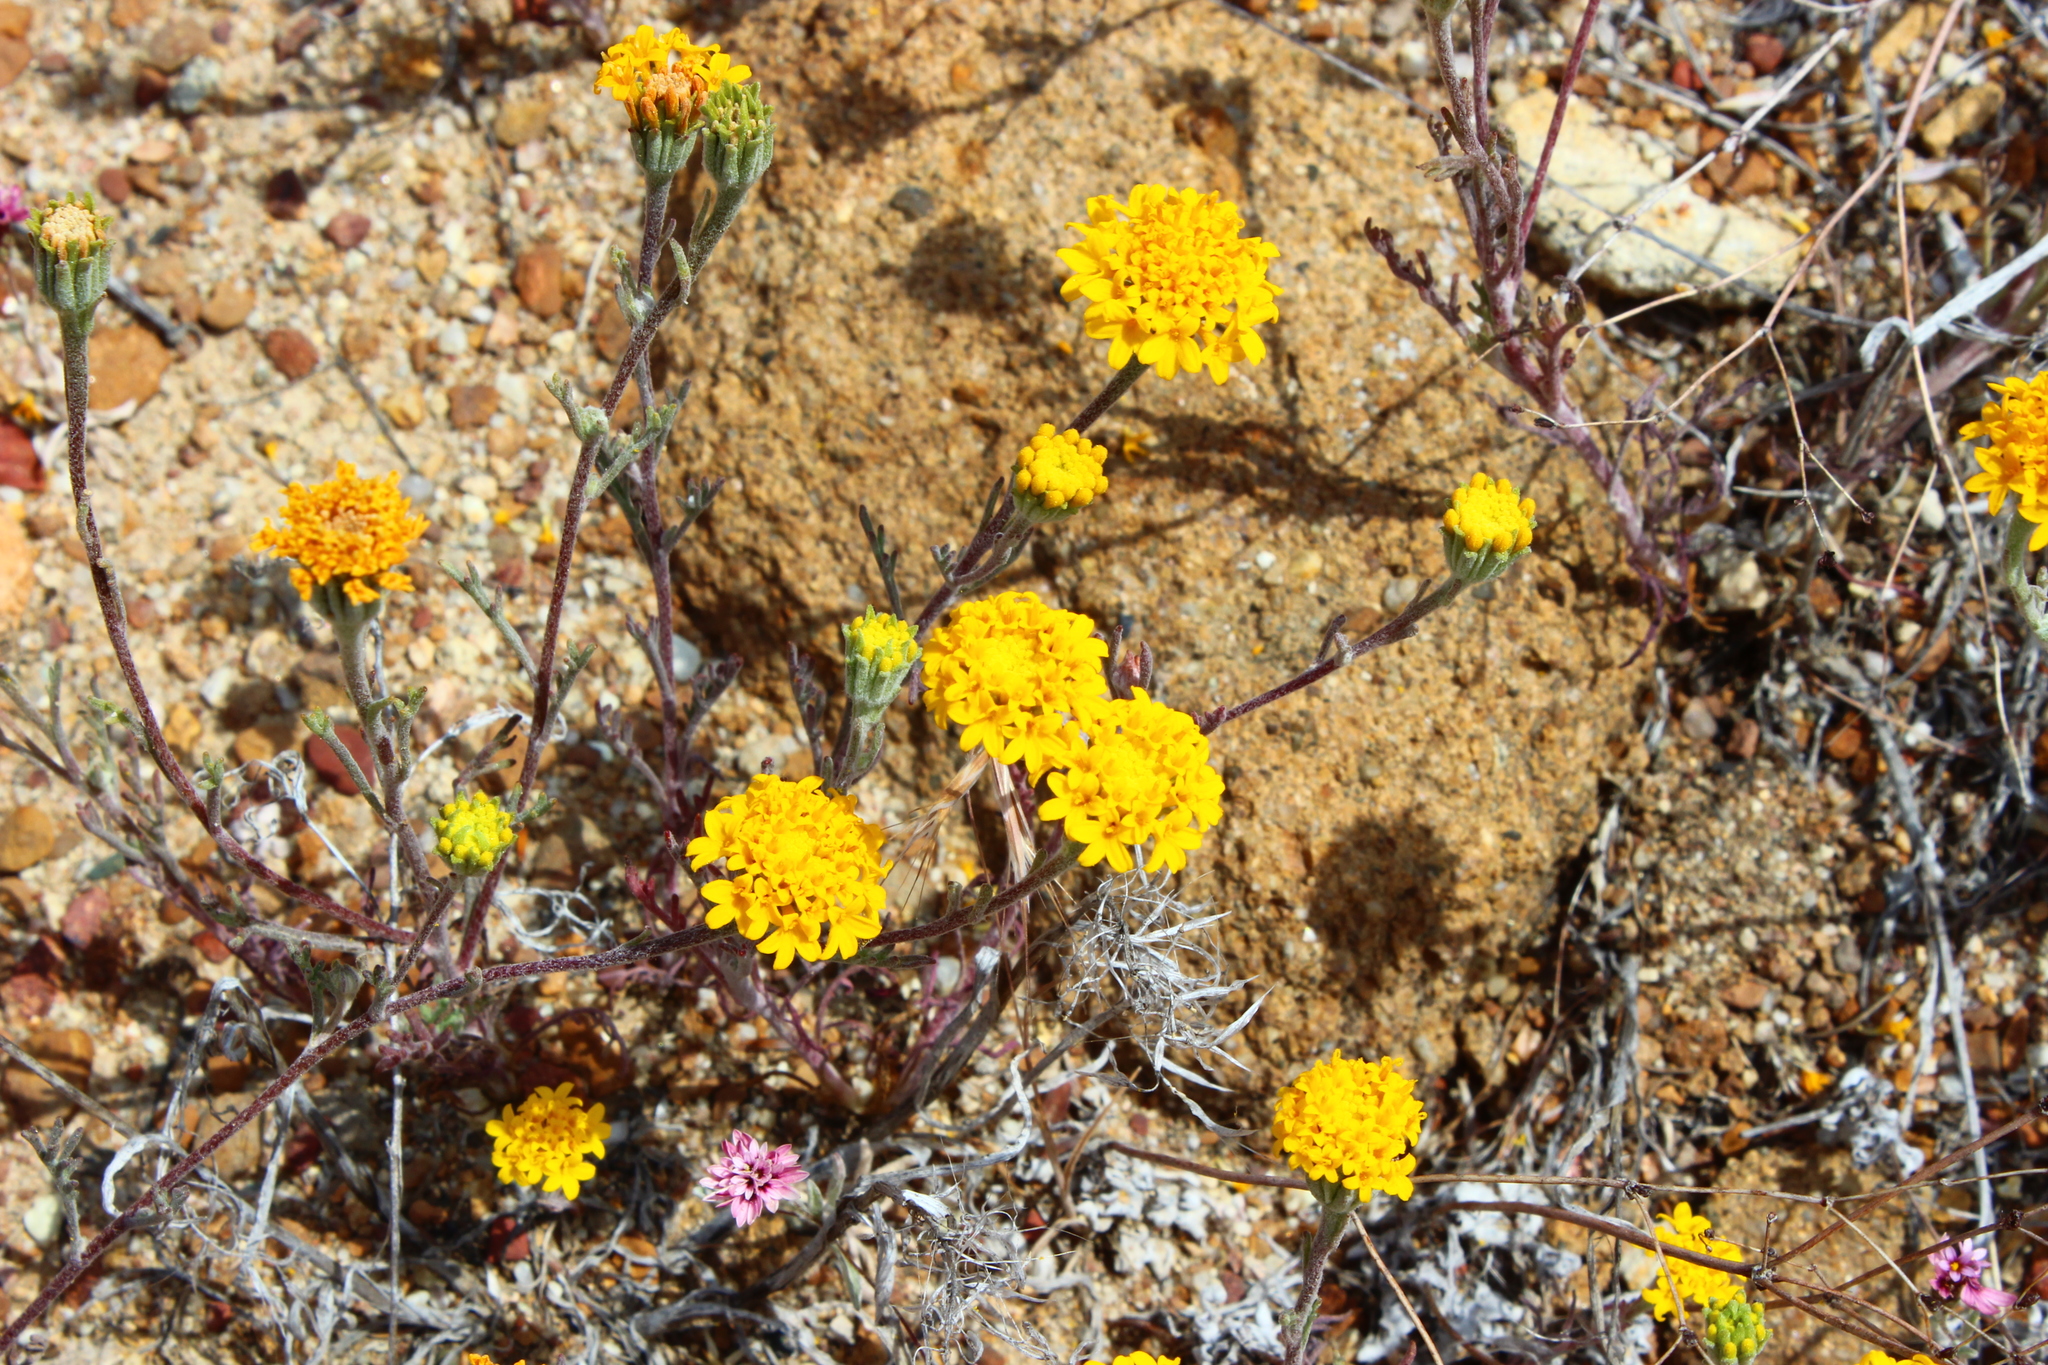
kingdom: Plantae
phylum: Tracheophyta
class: Magnoliopsida
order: Asterales
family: Asteraceae
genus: Chaenactis
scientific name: Chaenactis glabriuscula
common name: Yellow pincushion
